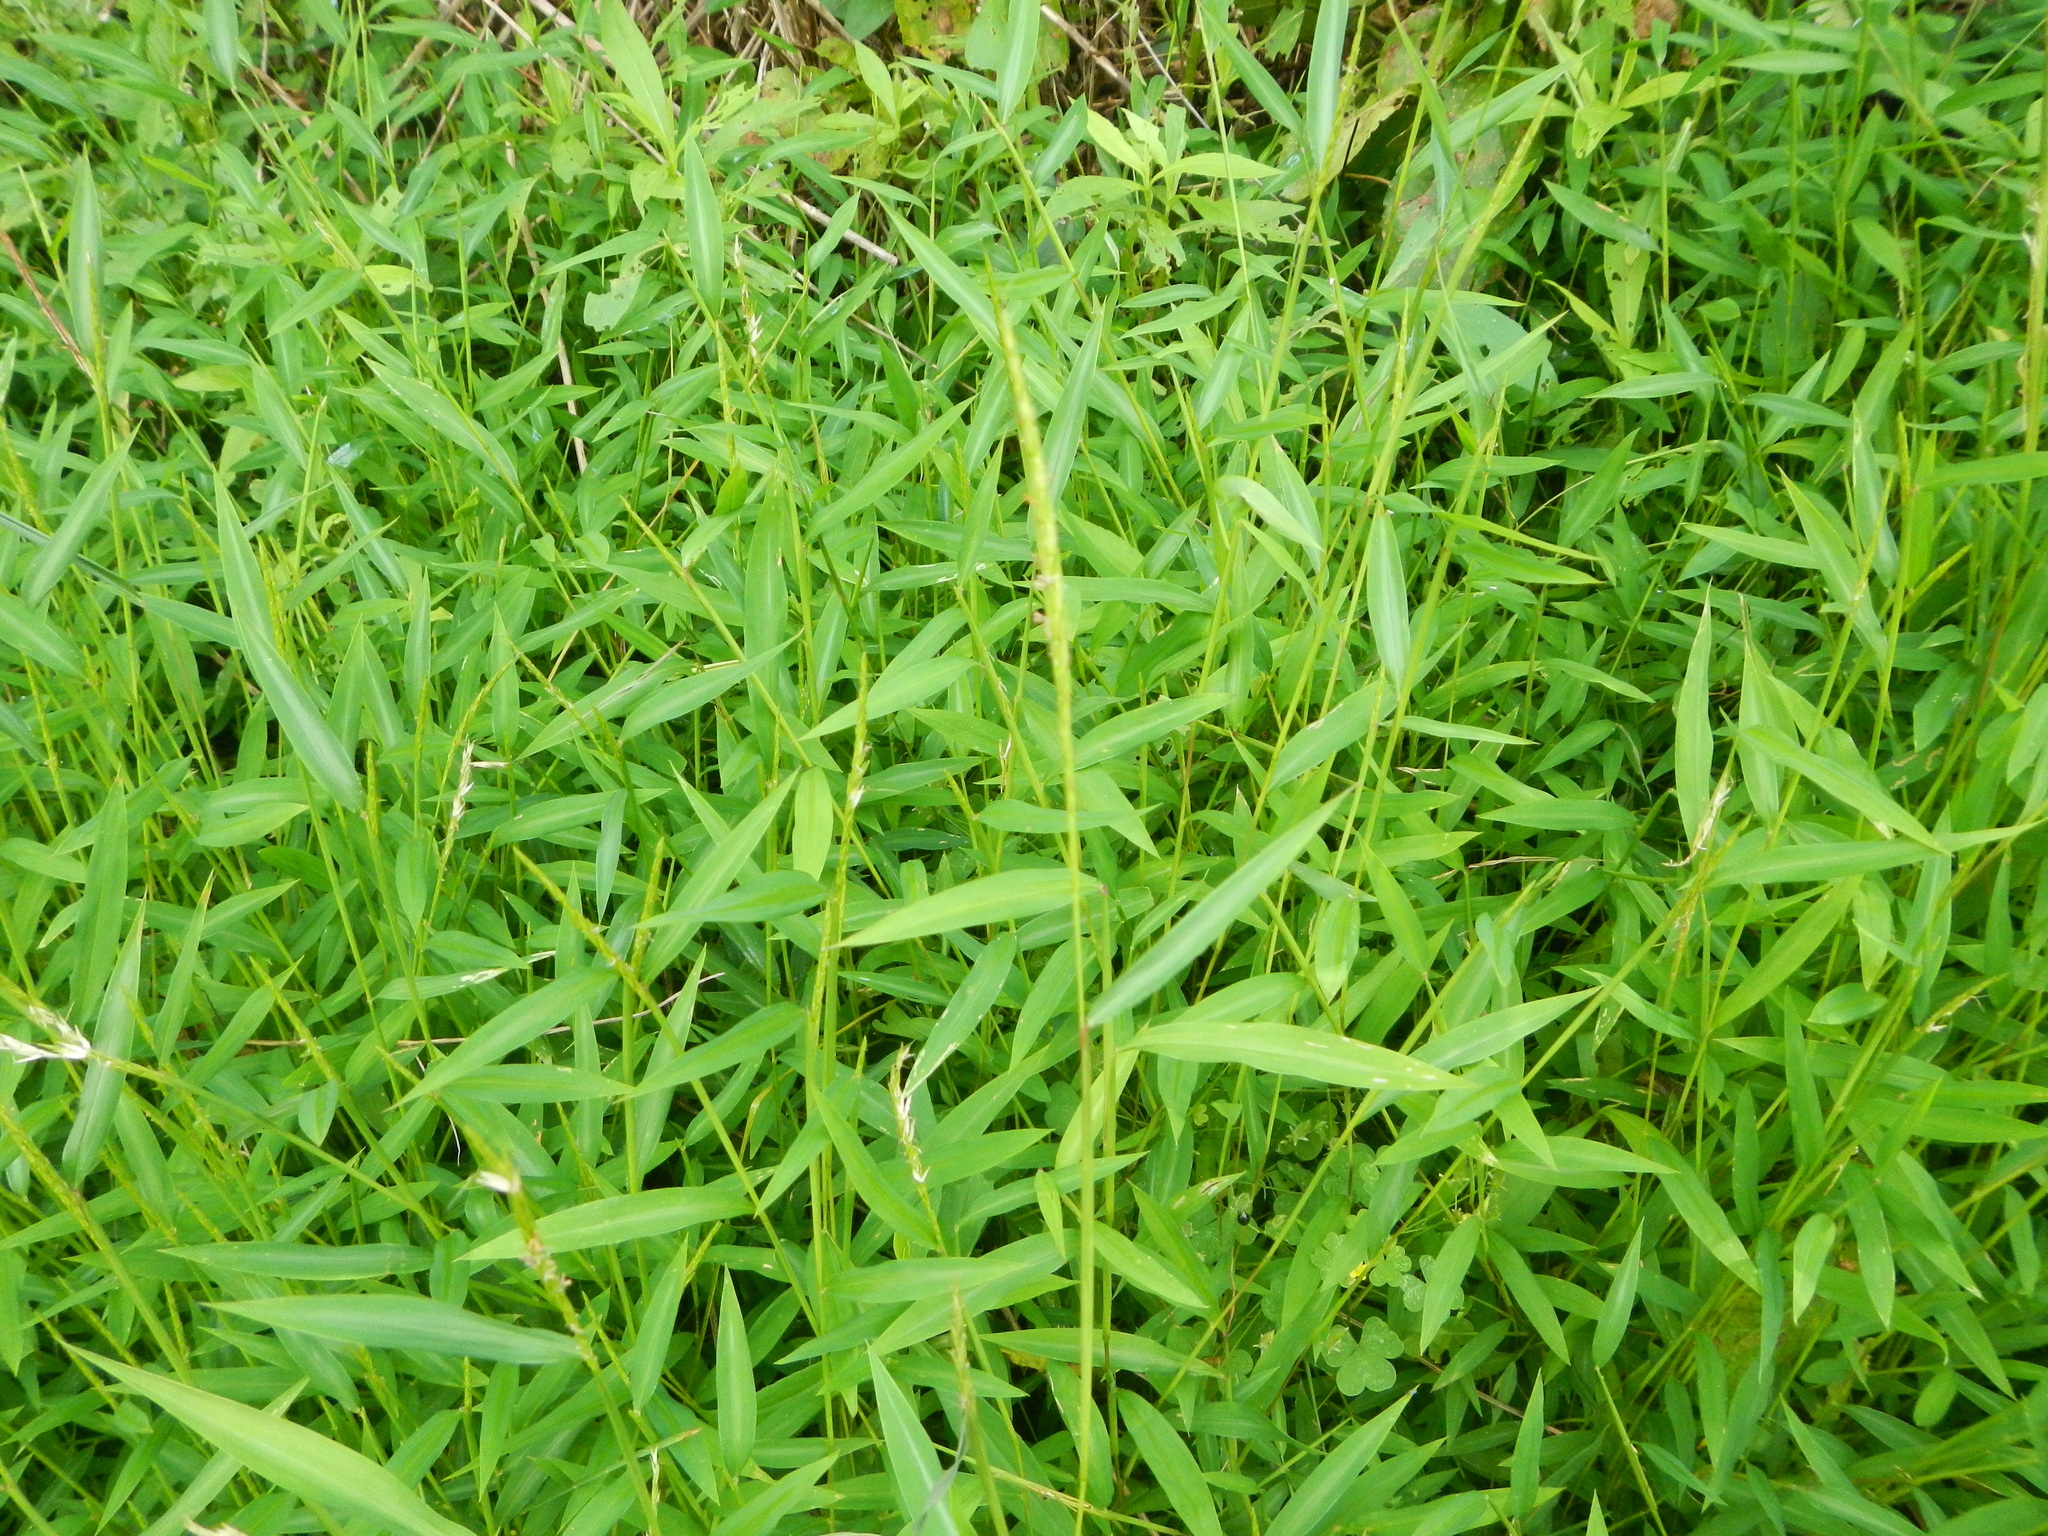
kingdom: Plantae
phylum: Tracheophyta
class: Liliopsida
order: Poales
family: Poaceae
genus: Microstegium
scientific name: Microstegium vimineum
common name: Japanese stiltgrass
